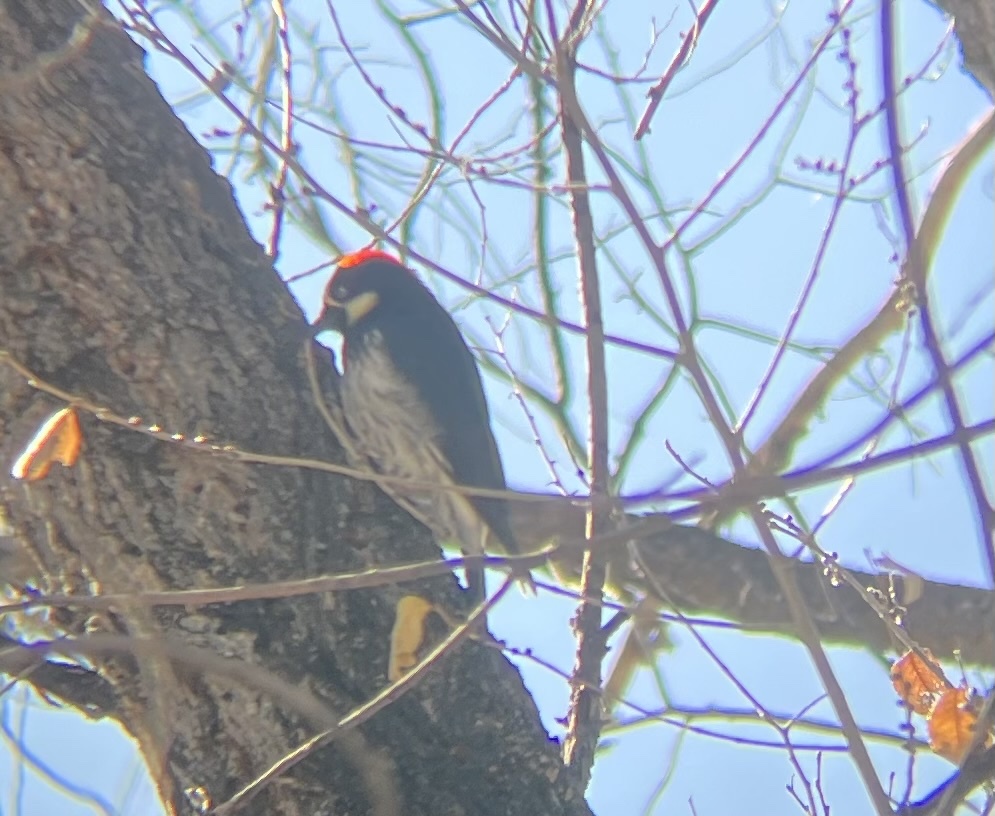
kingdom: Animalia
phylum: Chordata
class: Aves
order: Piciformes
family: Picidae
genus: Melanerpes
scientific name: Melanerpes formicivorus
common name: Acorn woodpecker
